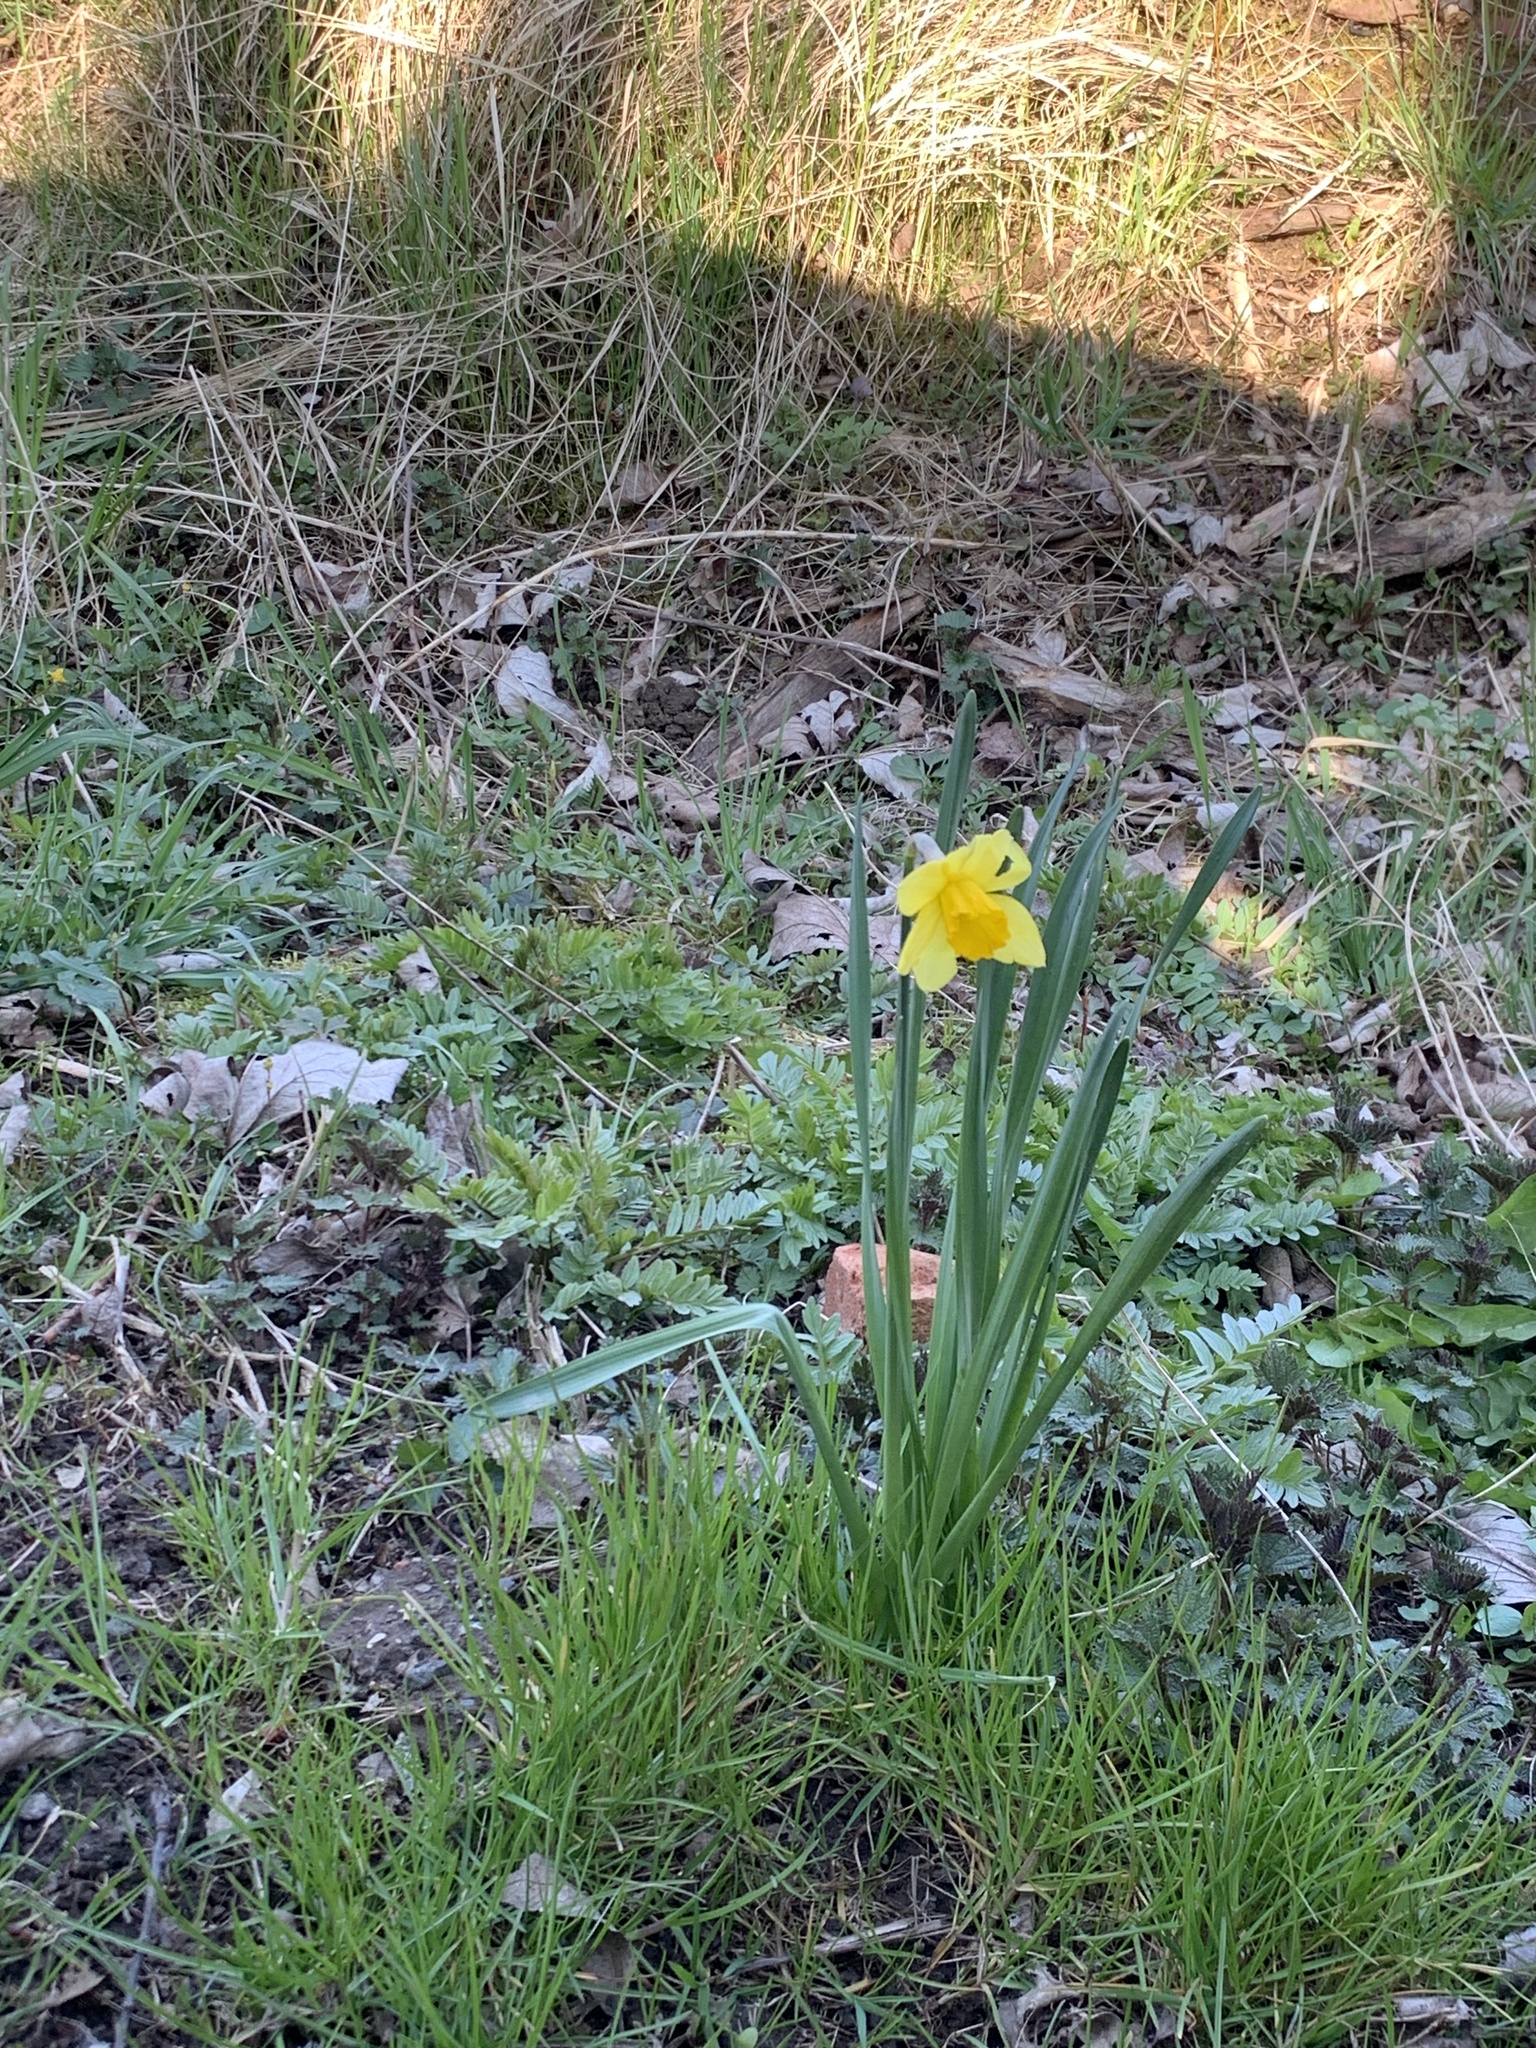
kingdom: Plantae
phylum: Tracheophyta
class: Liliopsida
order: Asparagales
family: Amaryllidaceae
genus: Narcissus
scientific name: Narcissus pseudonarcissus
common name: Daffodil
